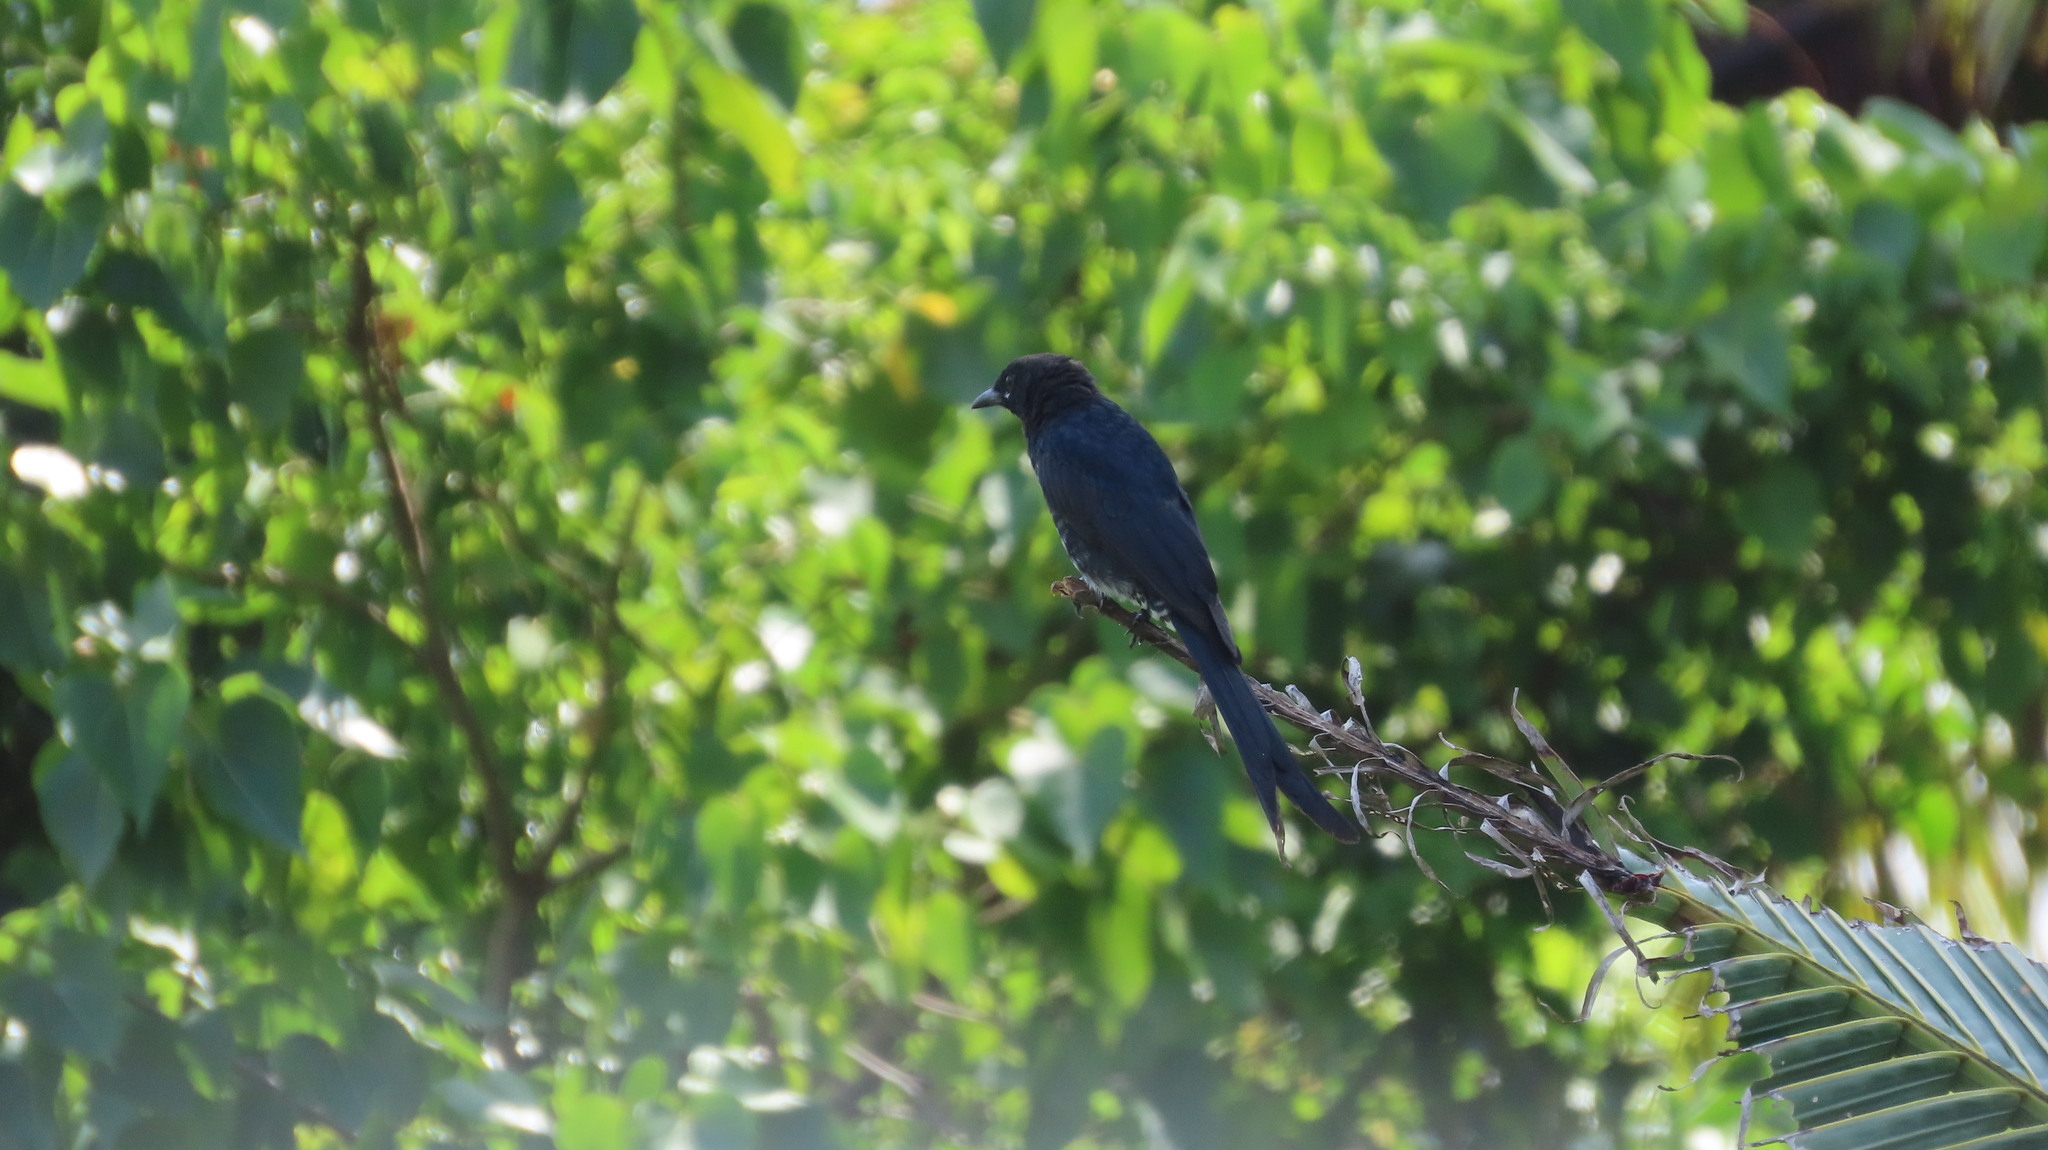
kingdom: Animalia
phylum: Chordata
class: Aves
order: Passeriformes
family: Dicruridae
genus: Dicrurus
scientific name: Dicrurus macrocercus
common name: Black drongo
